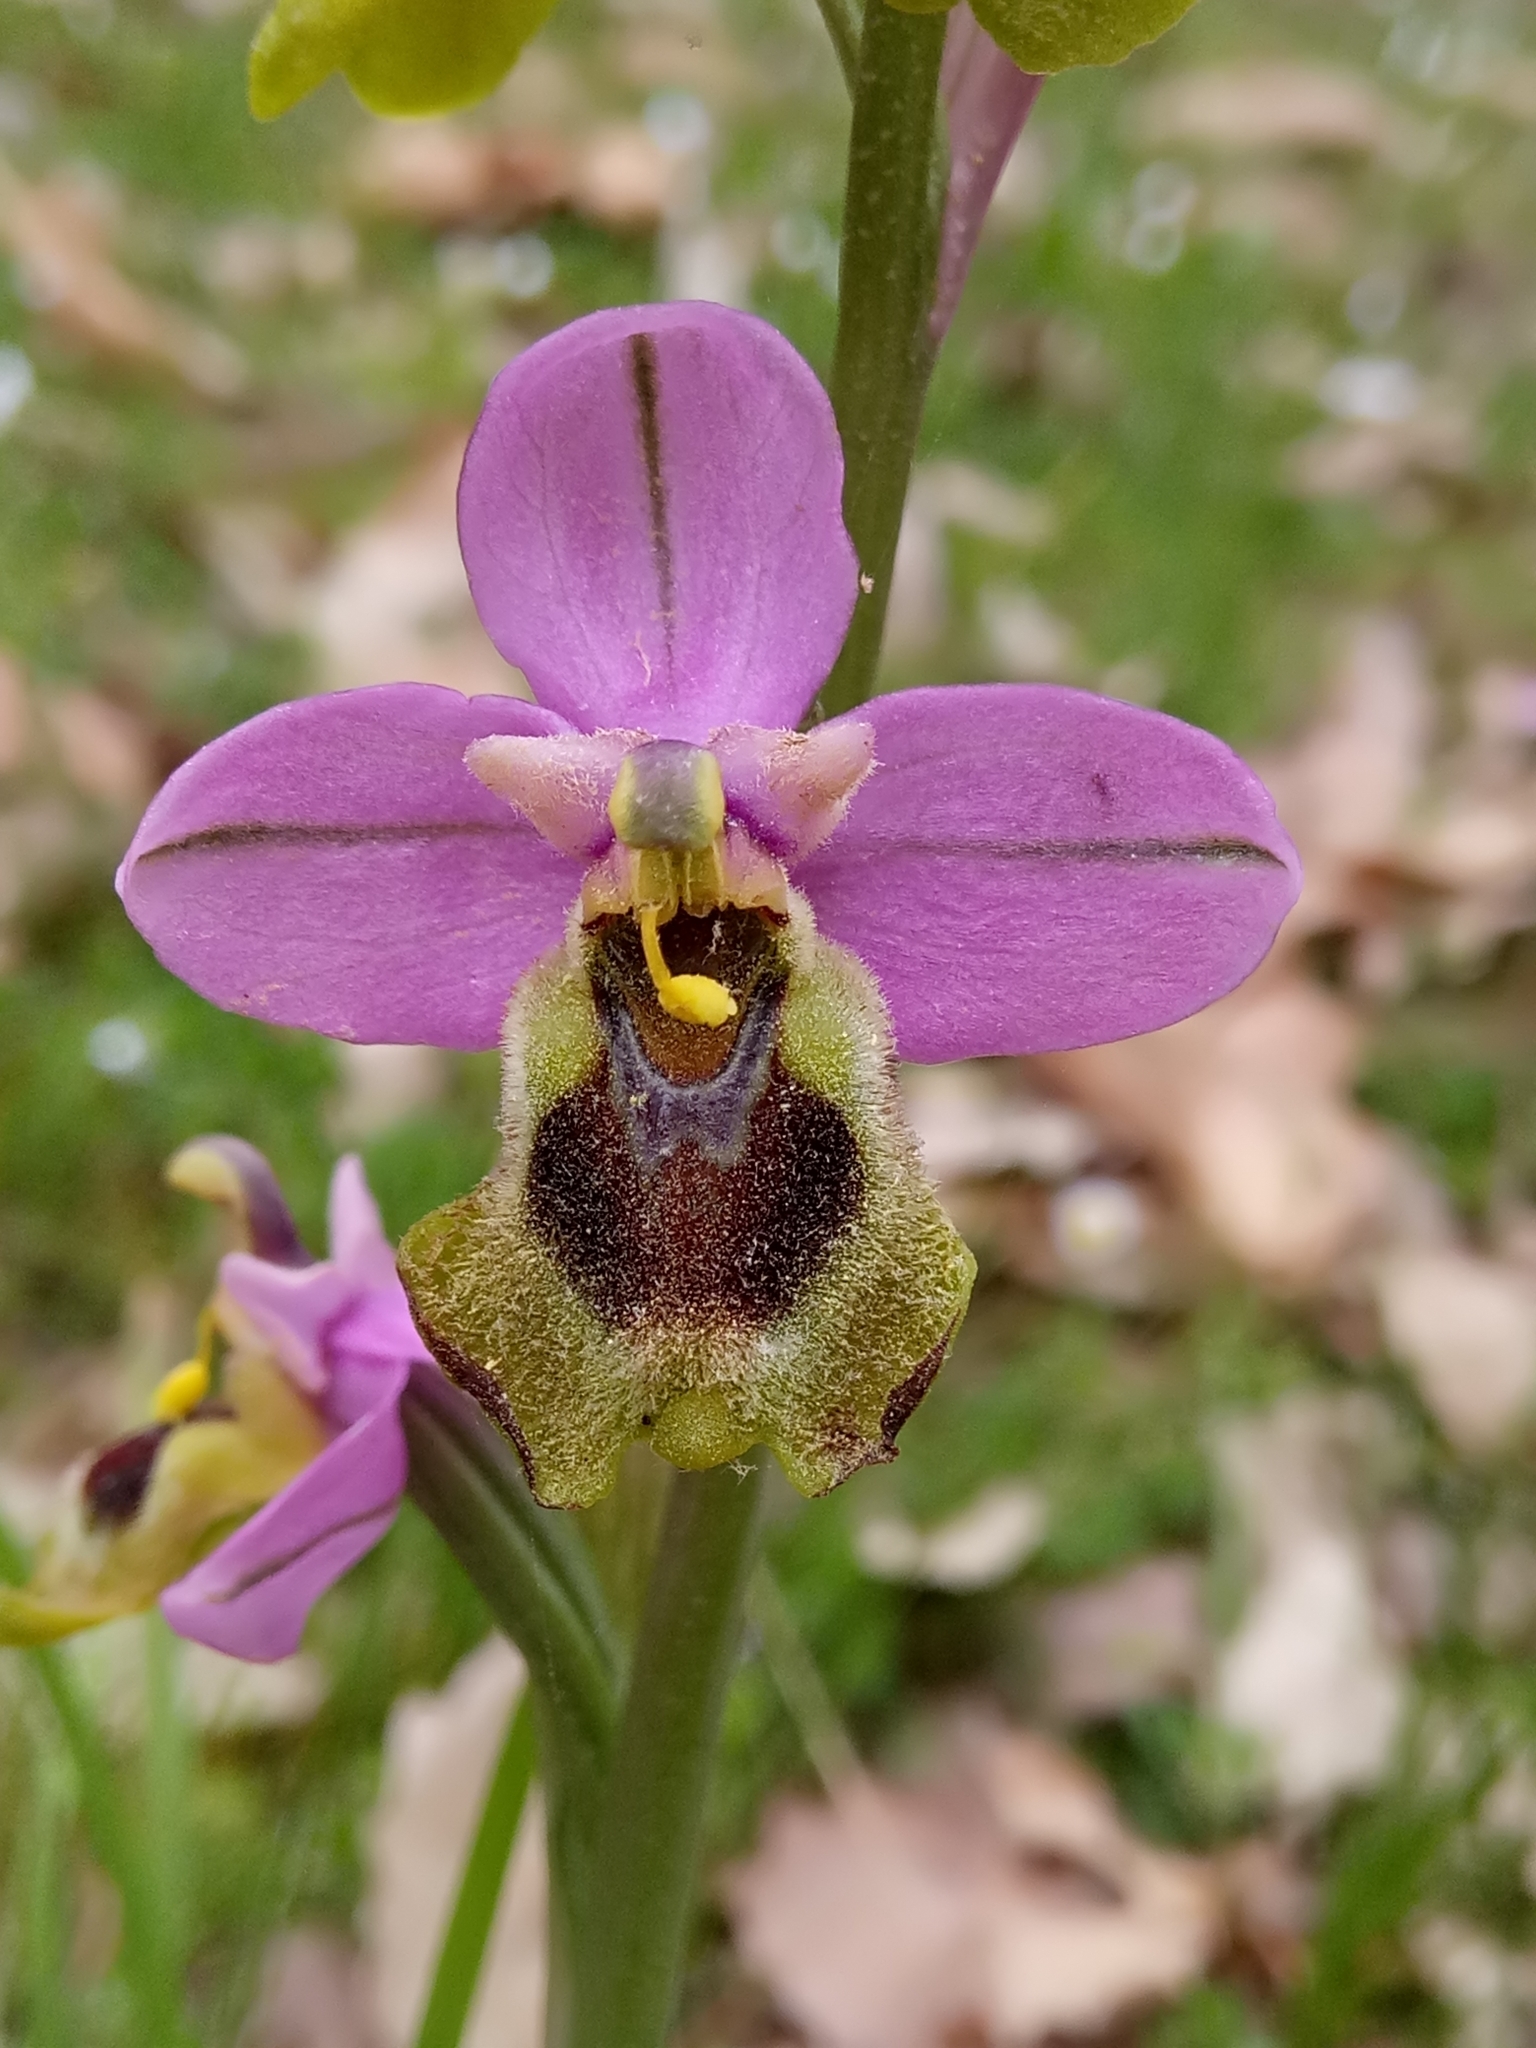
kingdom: Plantae
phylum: Tracheophyta
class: Liliopsida
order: Asparagales
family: Orchidaceae
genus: Ophrys
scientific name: Ophrys tenthredinifera
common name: Sawfly orchid
